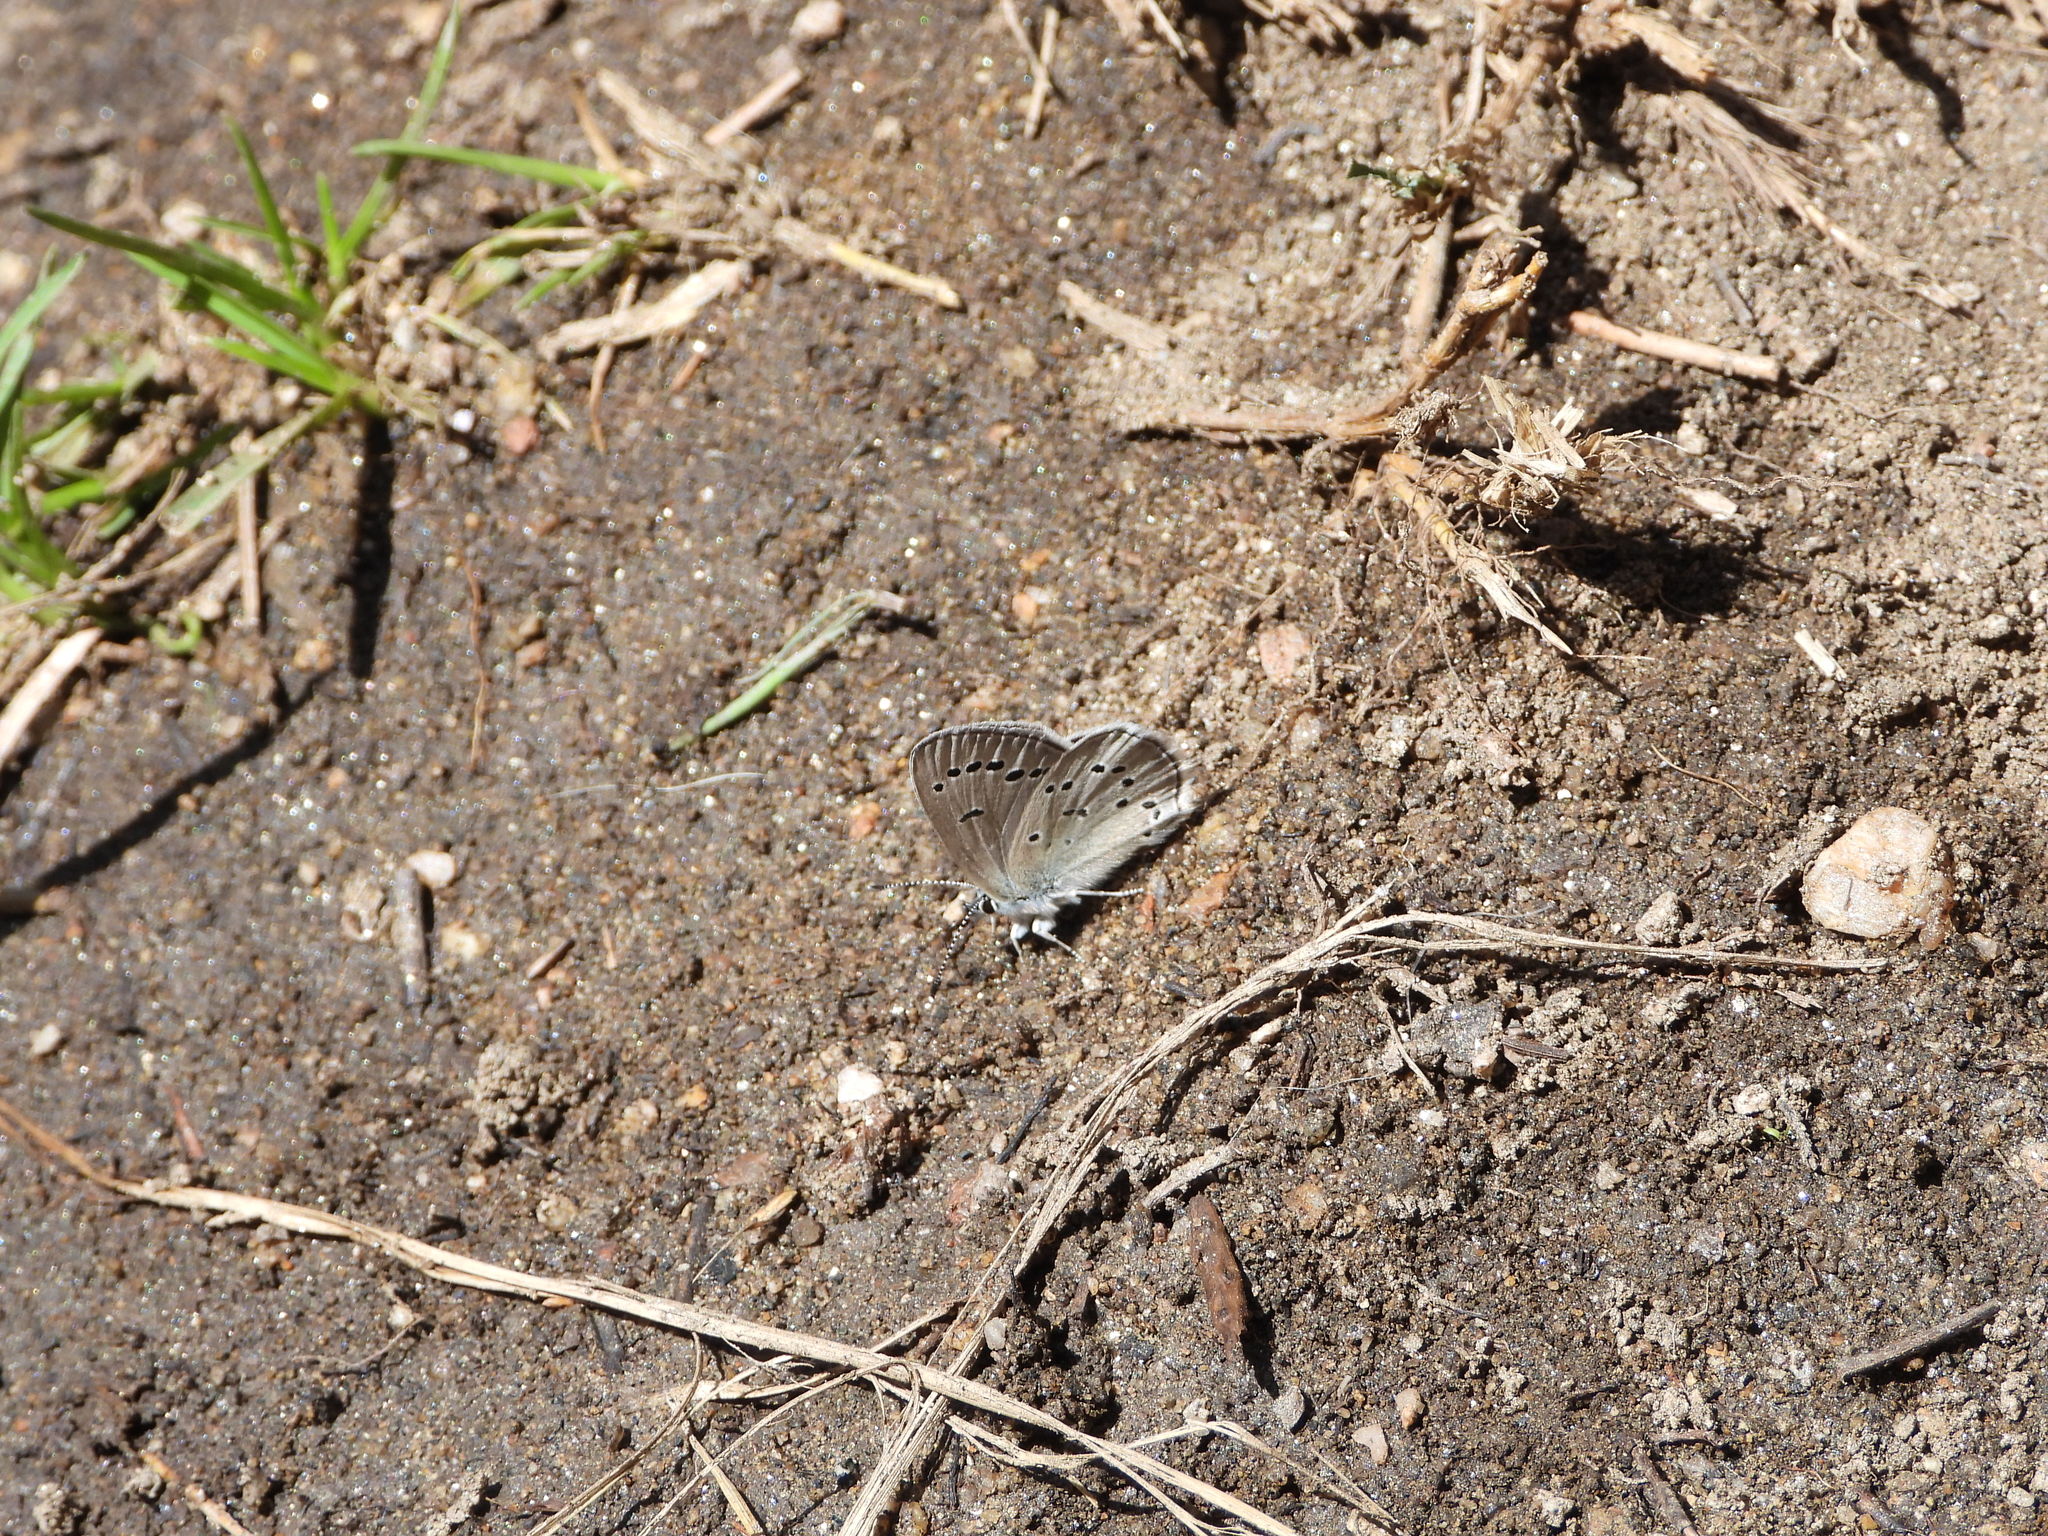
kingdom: Animalia
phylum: Arthropoda
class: Insecta
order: Lepidoptera
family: Lycaenidae
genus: Glaucopsyche
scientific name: Glaucopsyche lygdamus
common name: Silvery blue
